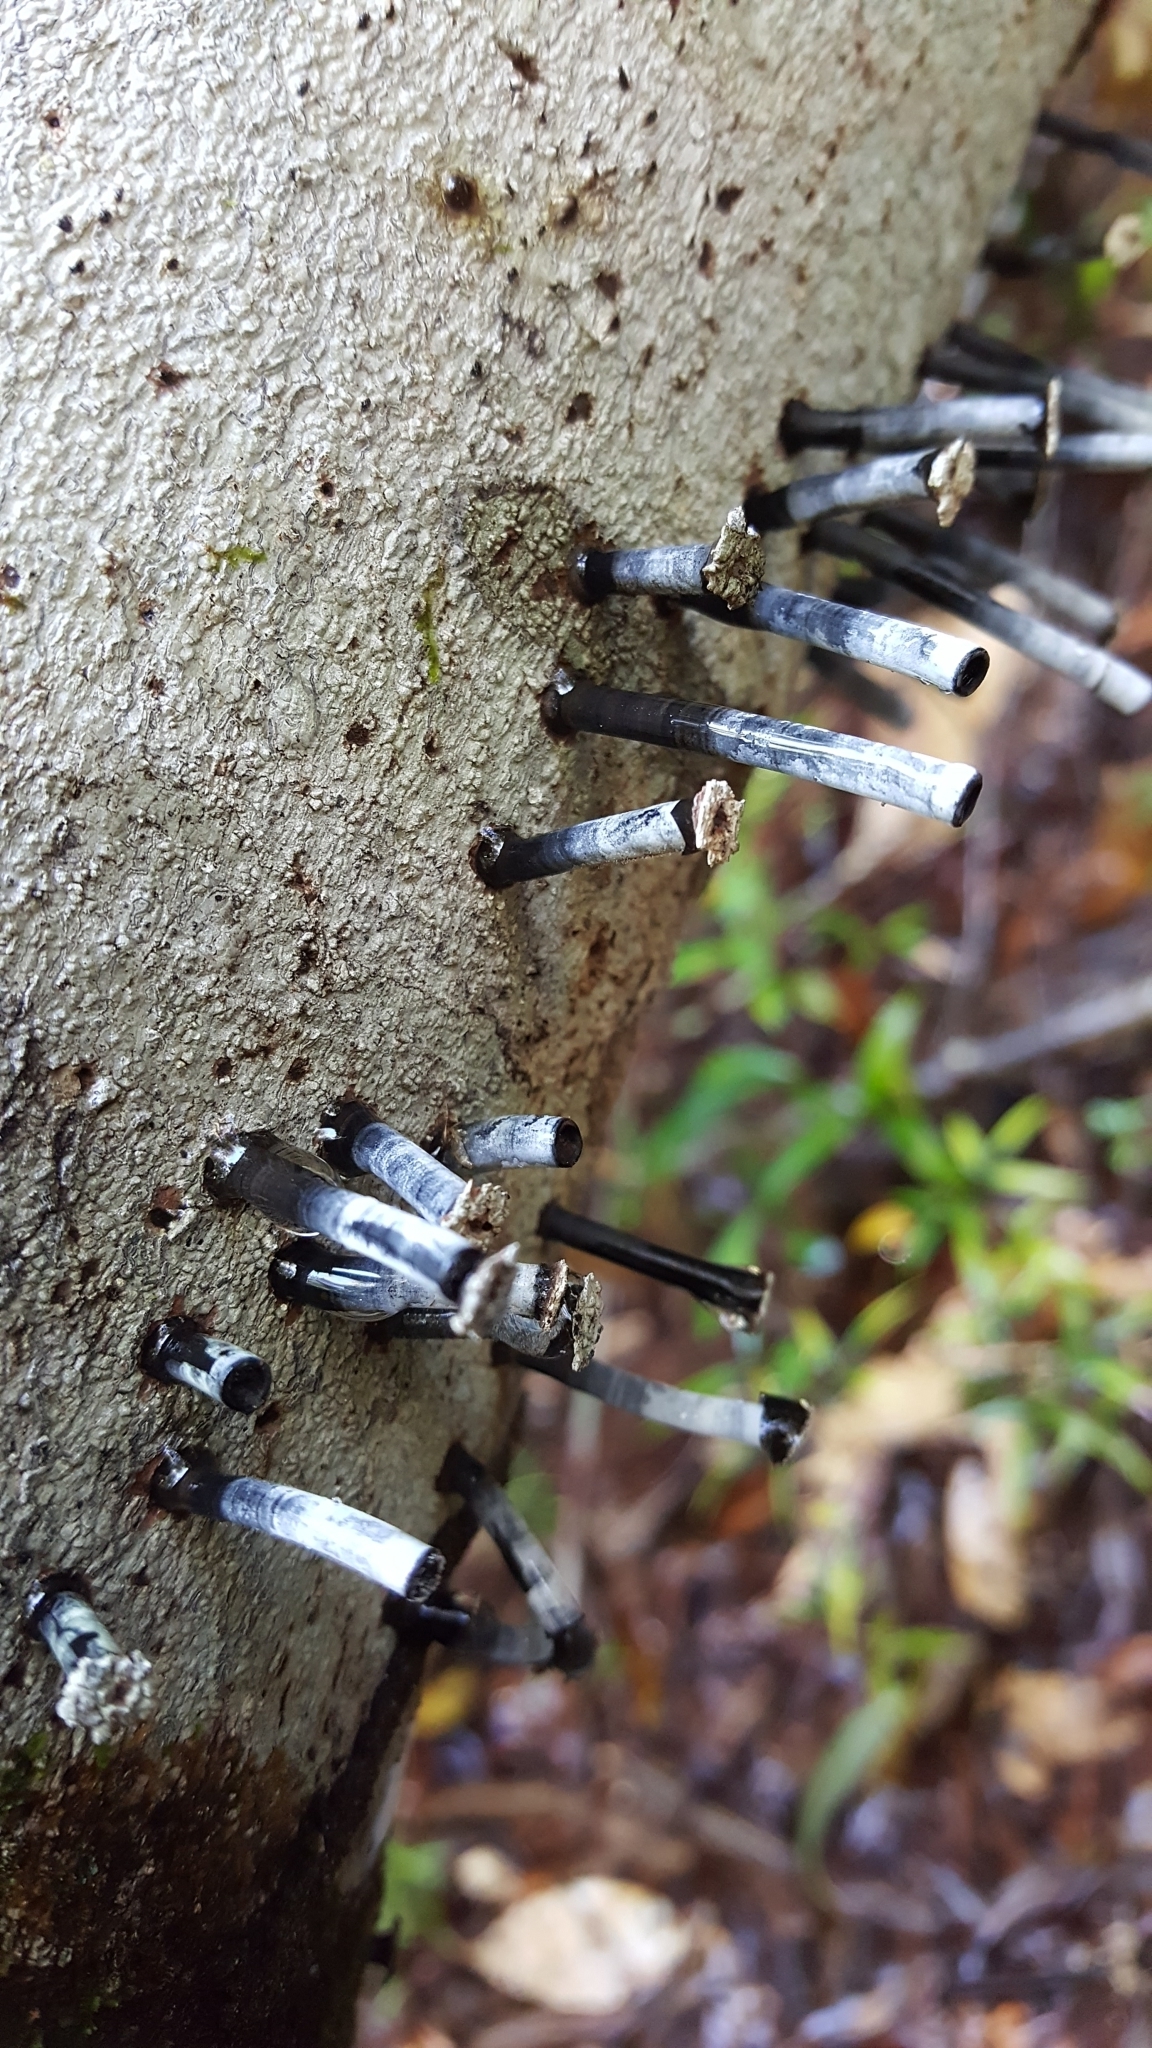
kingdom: Fungi
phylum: Ascomycota
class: Sordariomycetes
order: Xylariales
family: Graphostromataceae
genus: Camillea
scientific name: Camillea leprieurii
